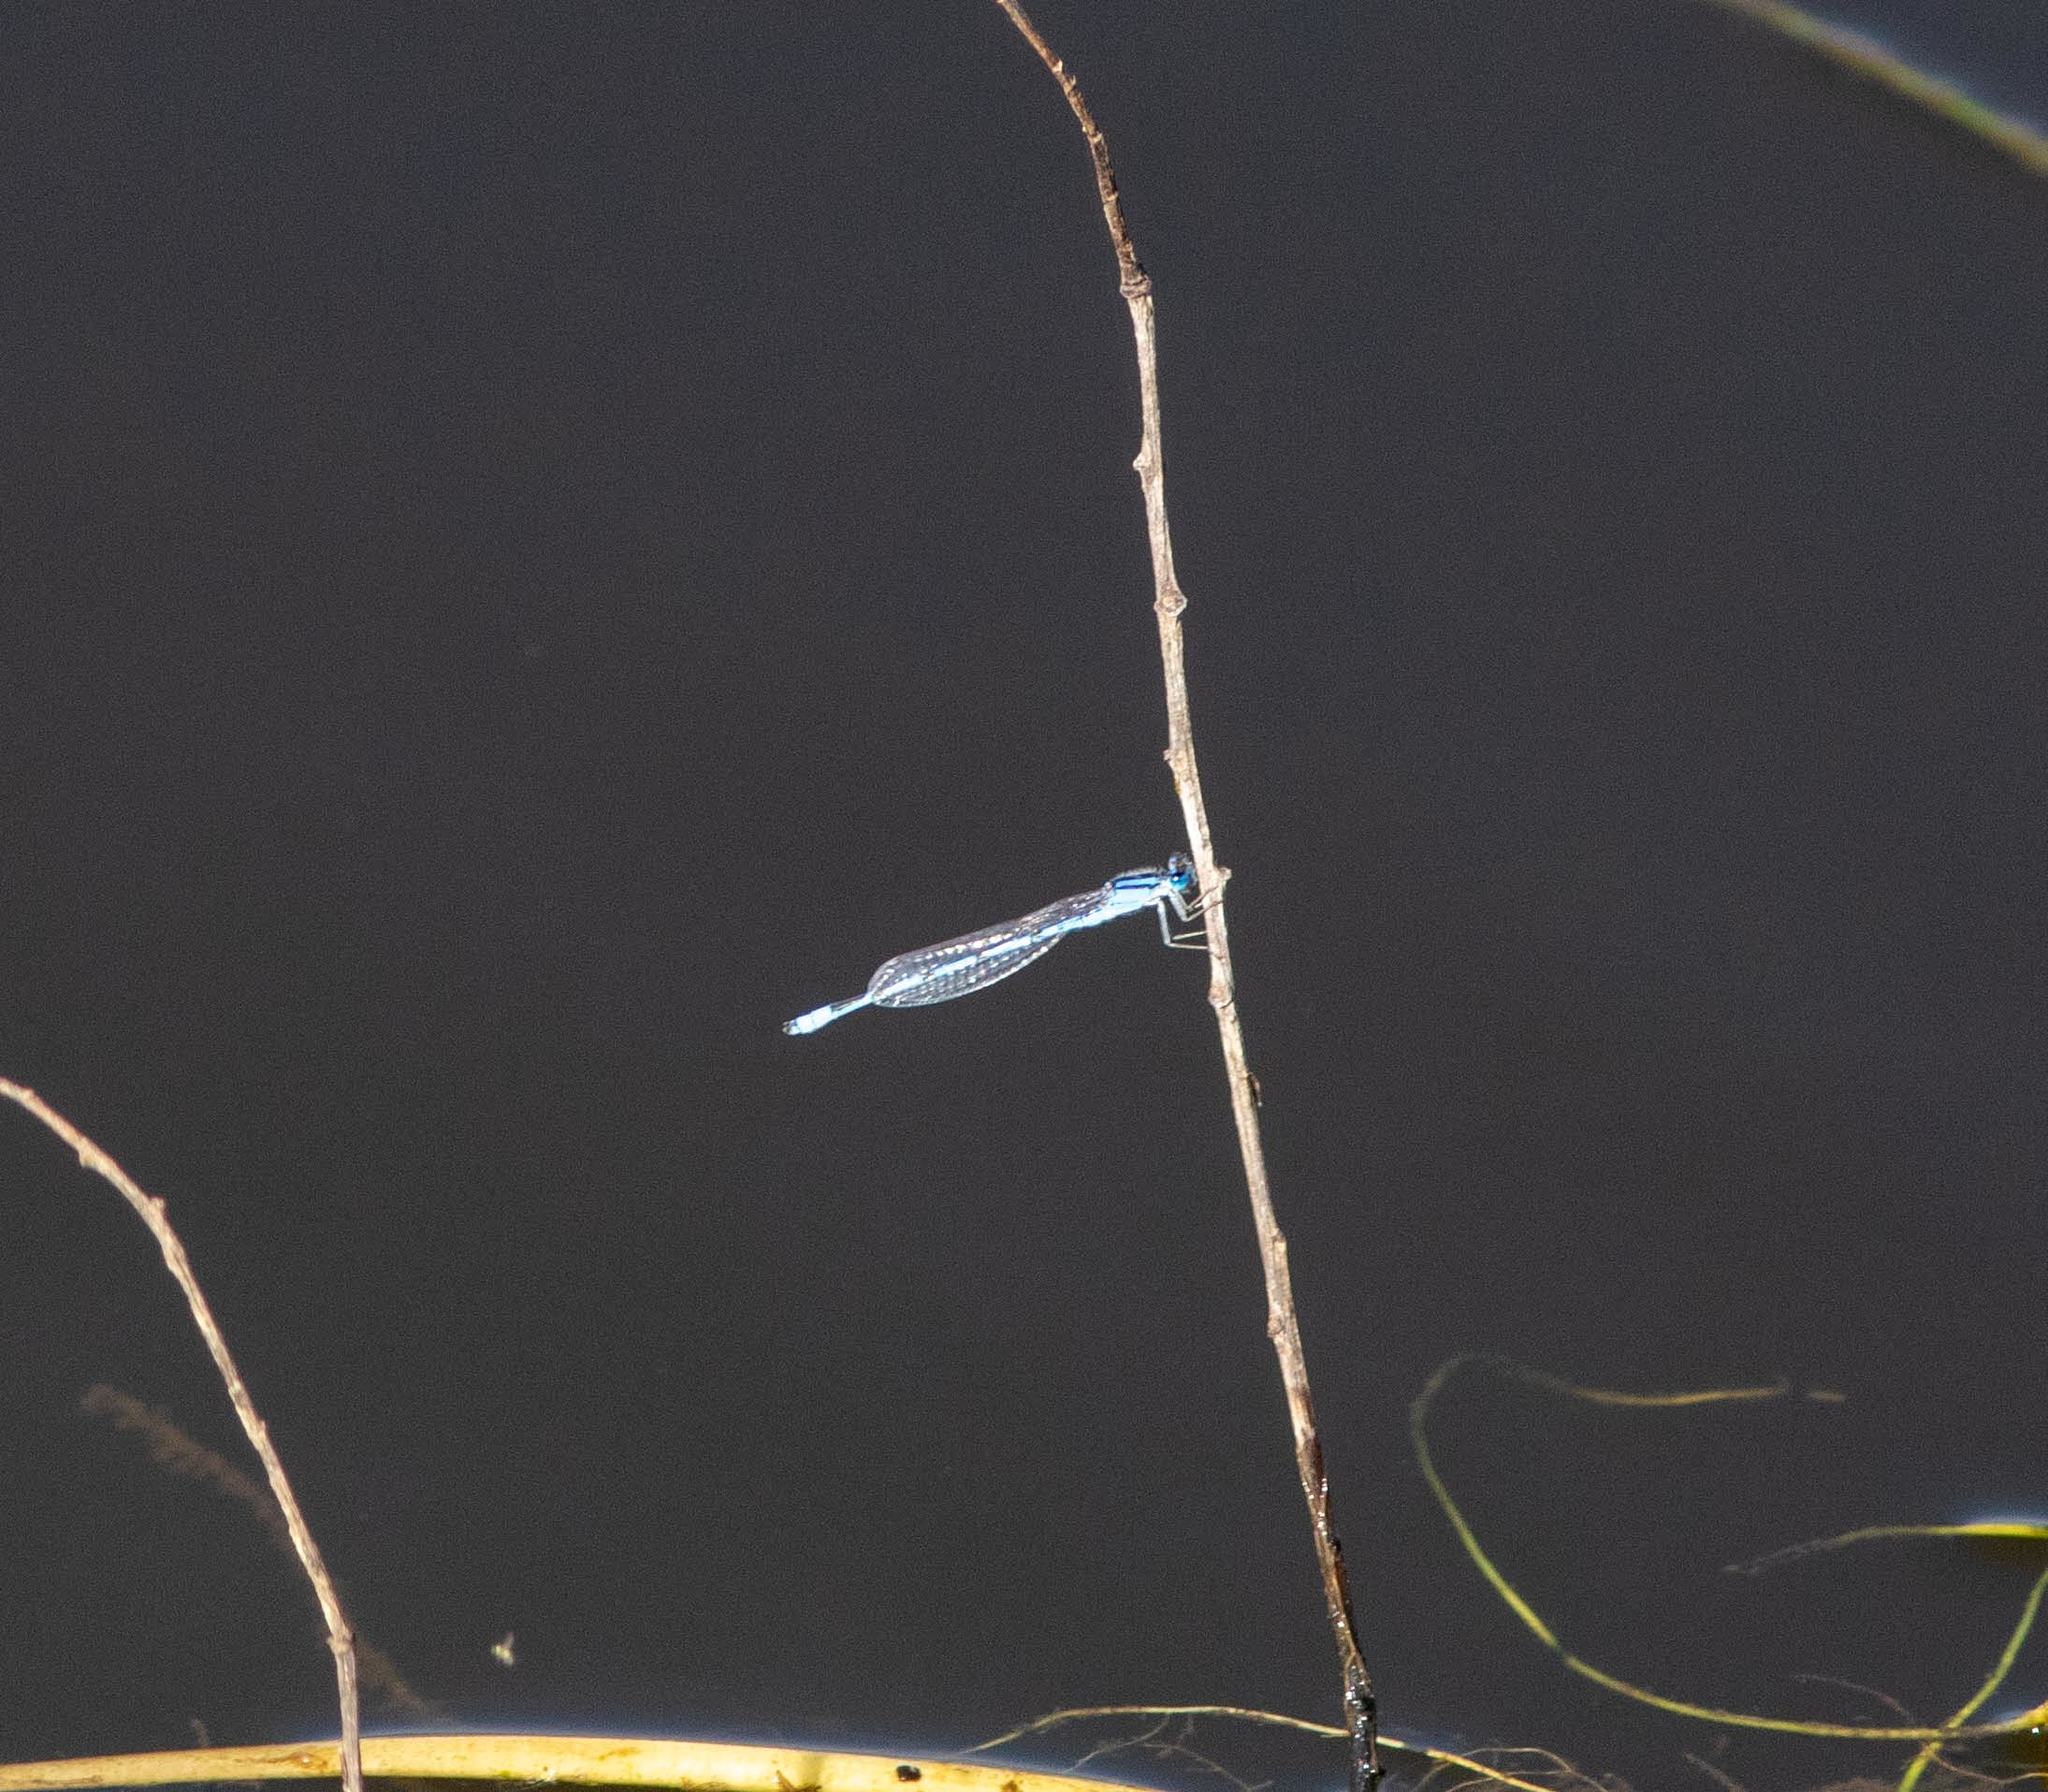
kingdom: Animalia
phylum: Arthropoda
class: Insecta
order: Odonata
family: Coenagrionidae
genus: Enallagma
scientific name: Enallagma civile
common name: Damselfly
